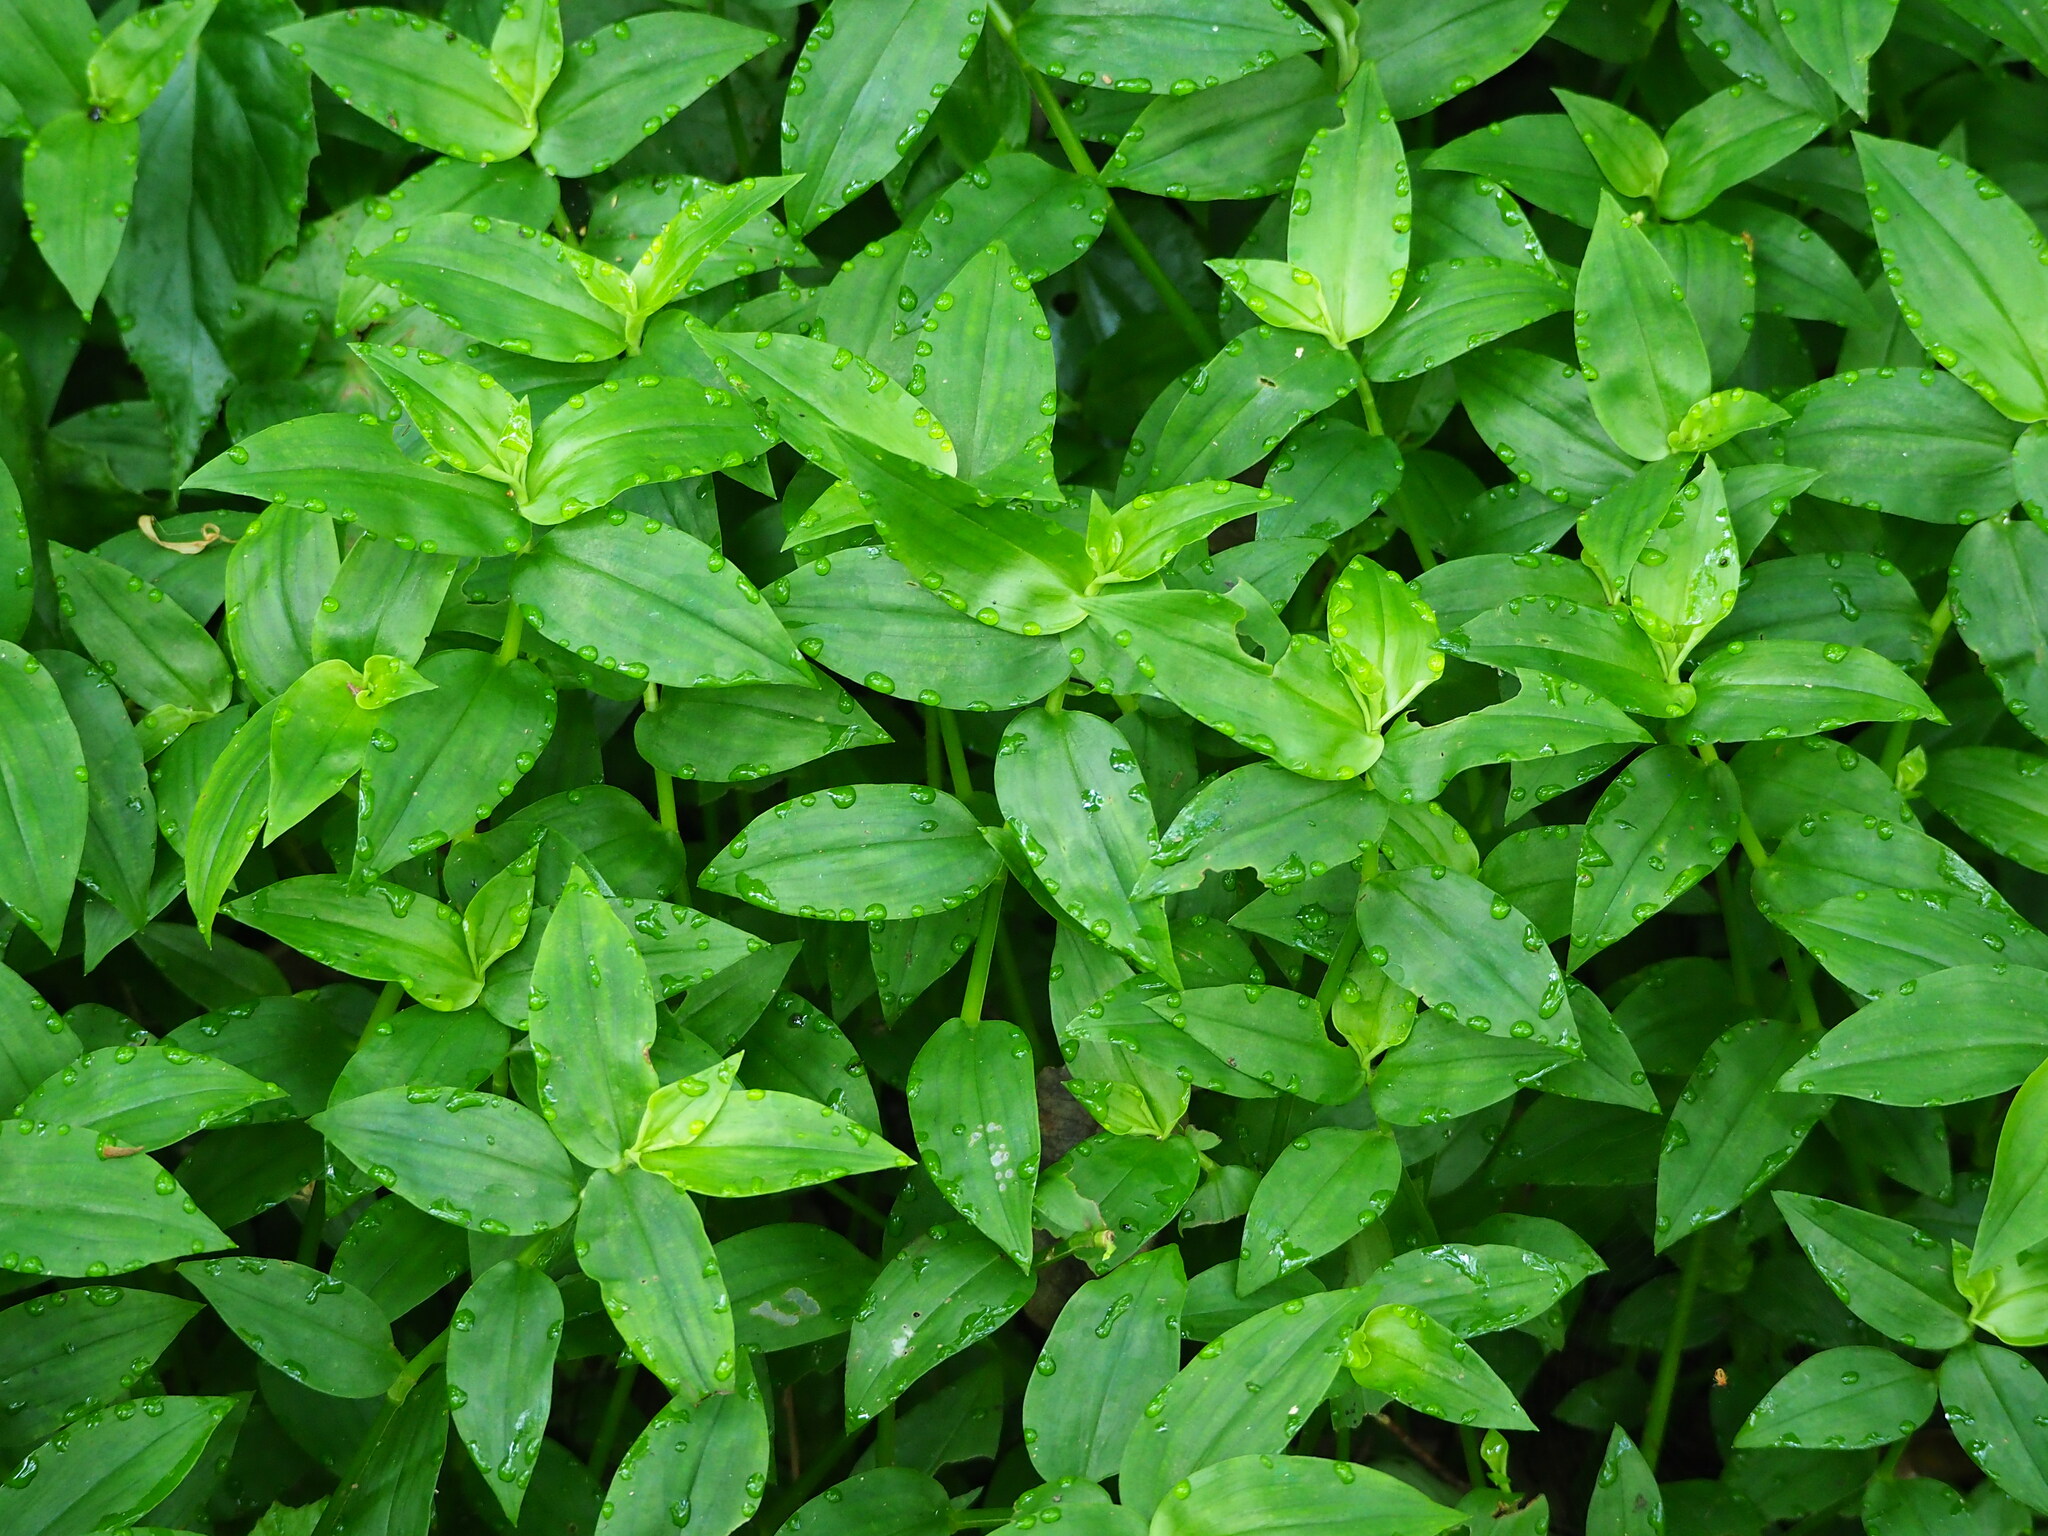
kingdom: Plantae
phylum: Tracheophyta
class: Liliopsida
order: Commelinales
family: Commelinaceae
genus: Tradescantia
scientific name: Tradescantia fluminensis
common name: Wandering-jew
